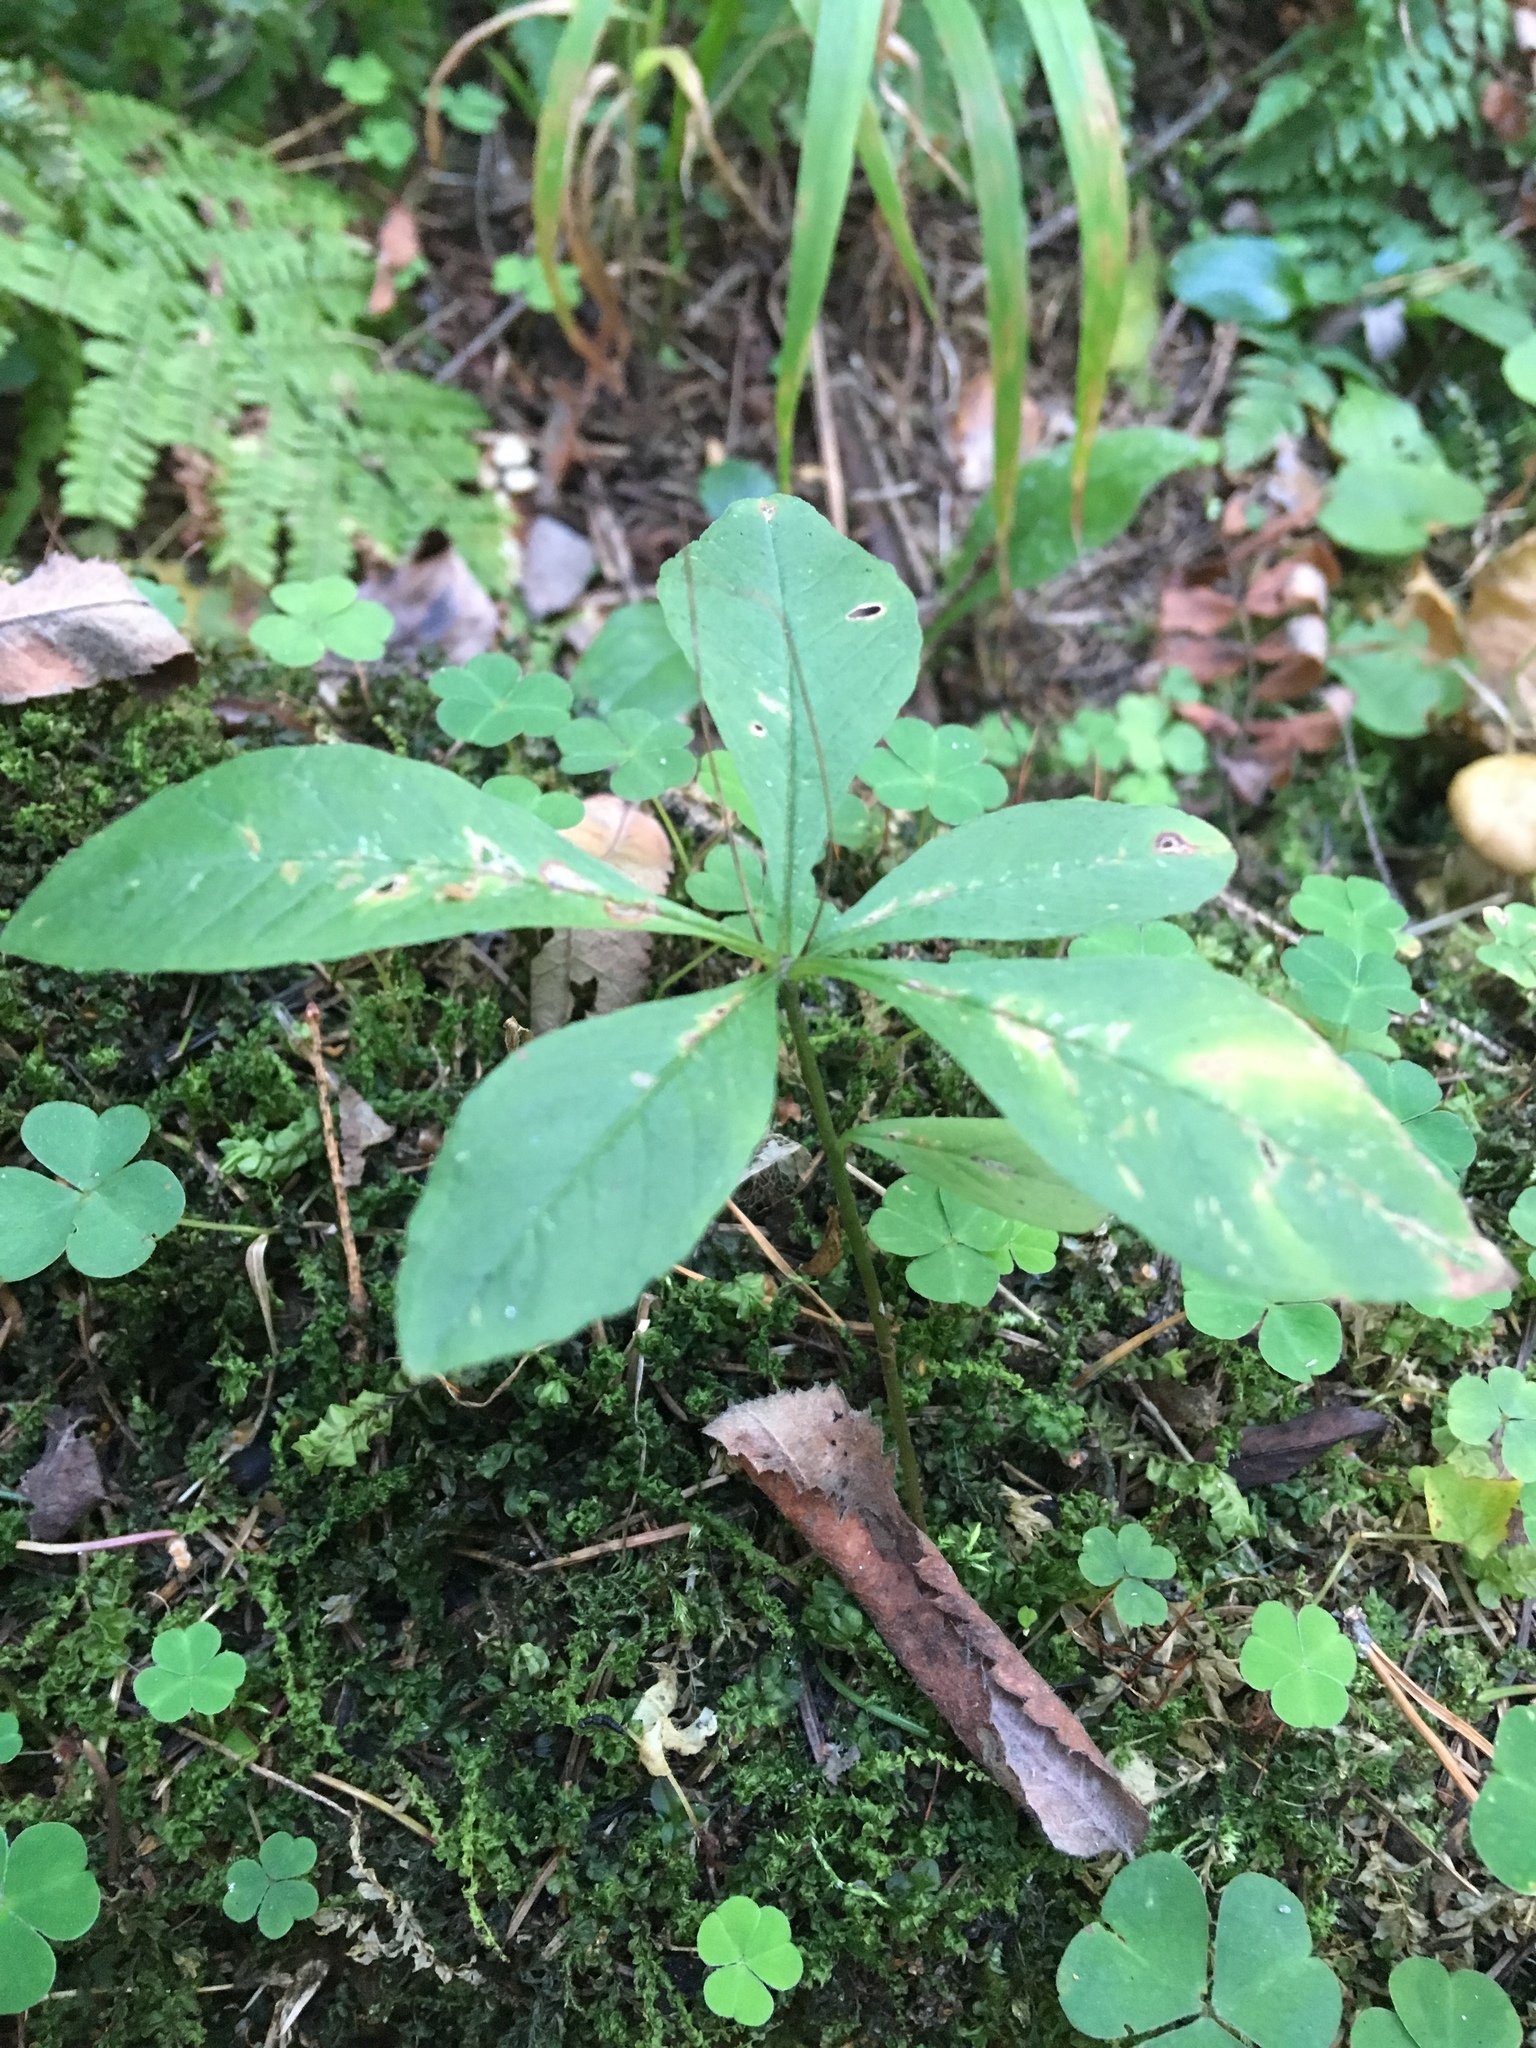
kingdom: Plantae
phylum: Tracheophyta
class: Magnoliopsida
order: Ericales
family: Primulaceae
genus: Lysimachia
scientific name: Lysimachia europaea
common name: Arctic starflower
